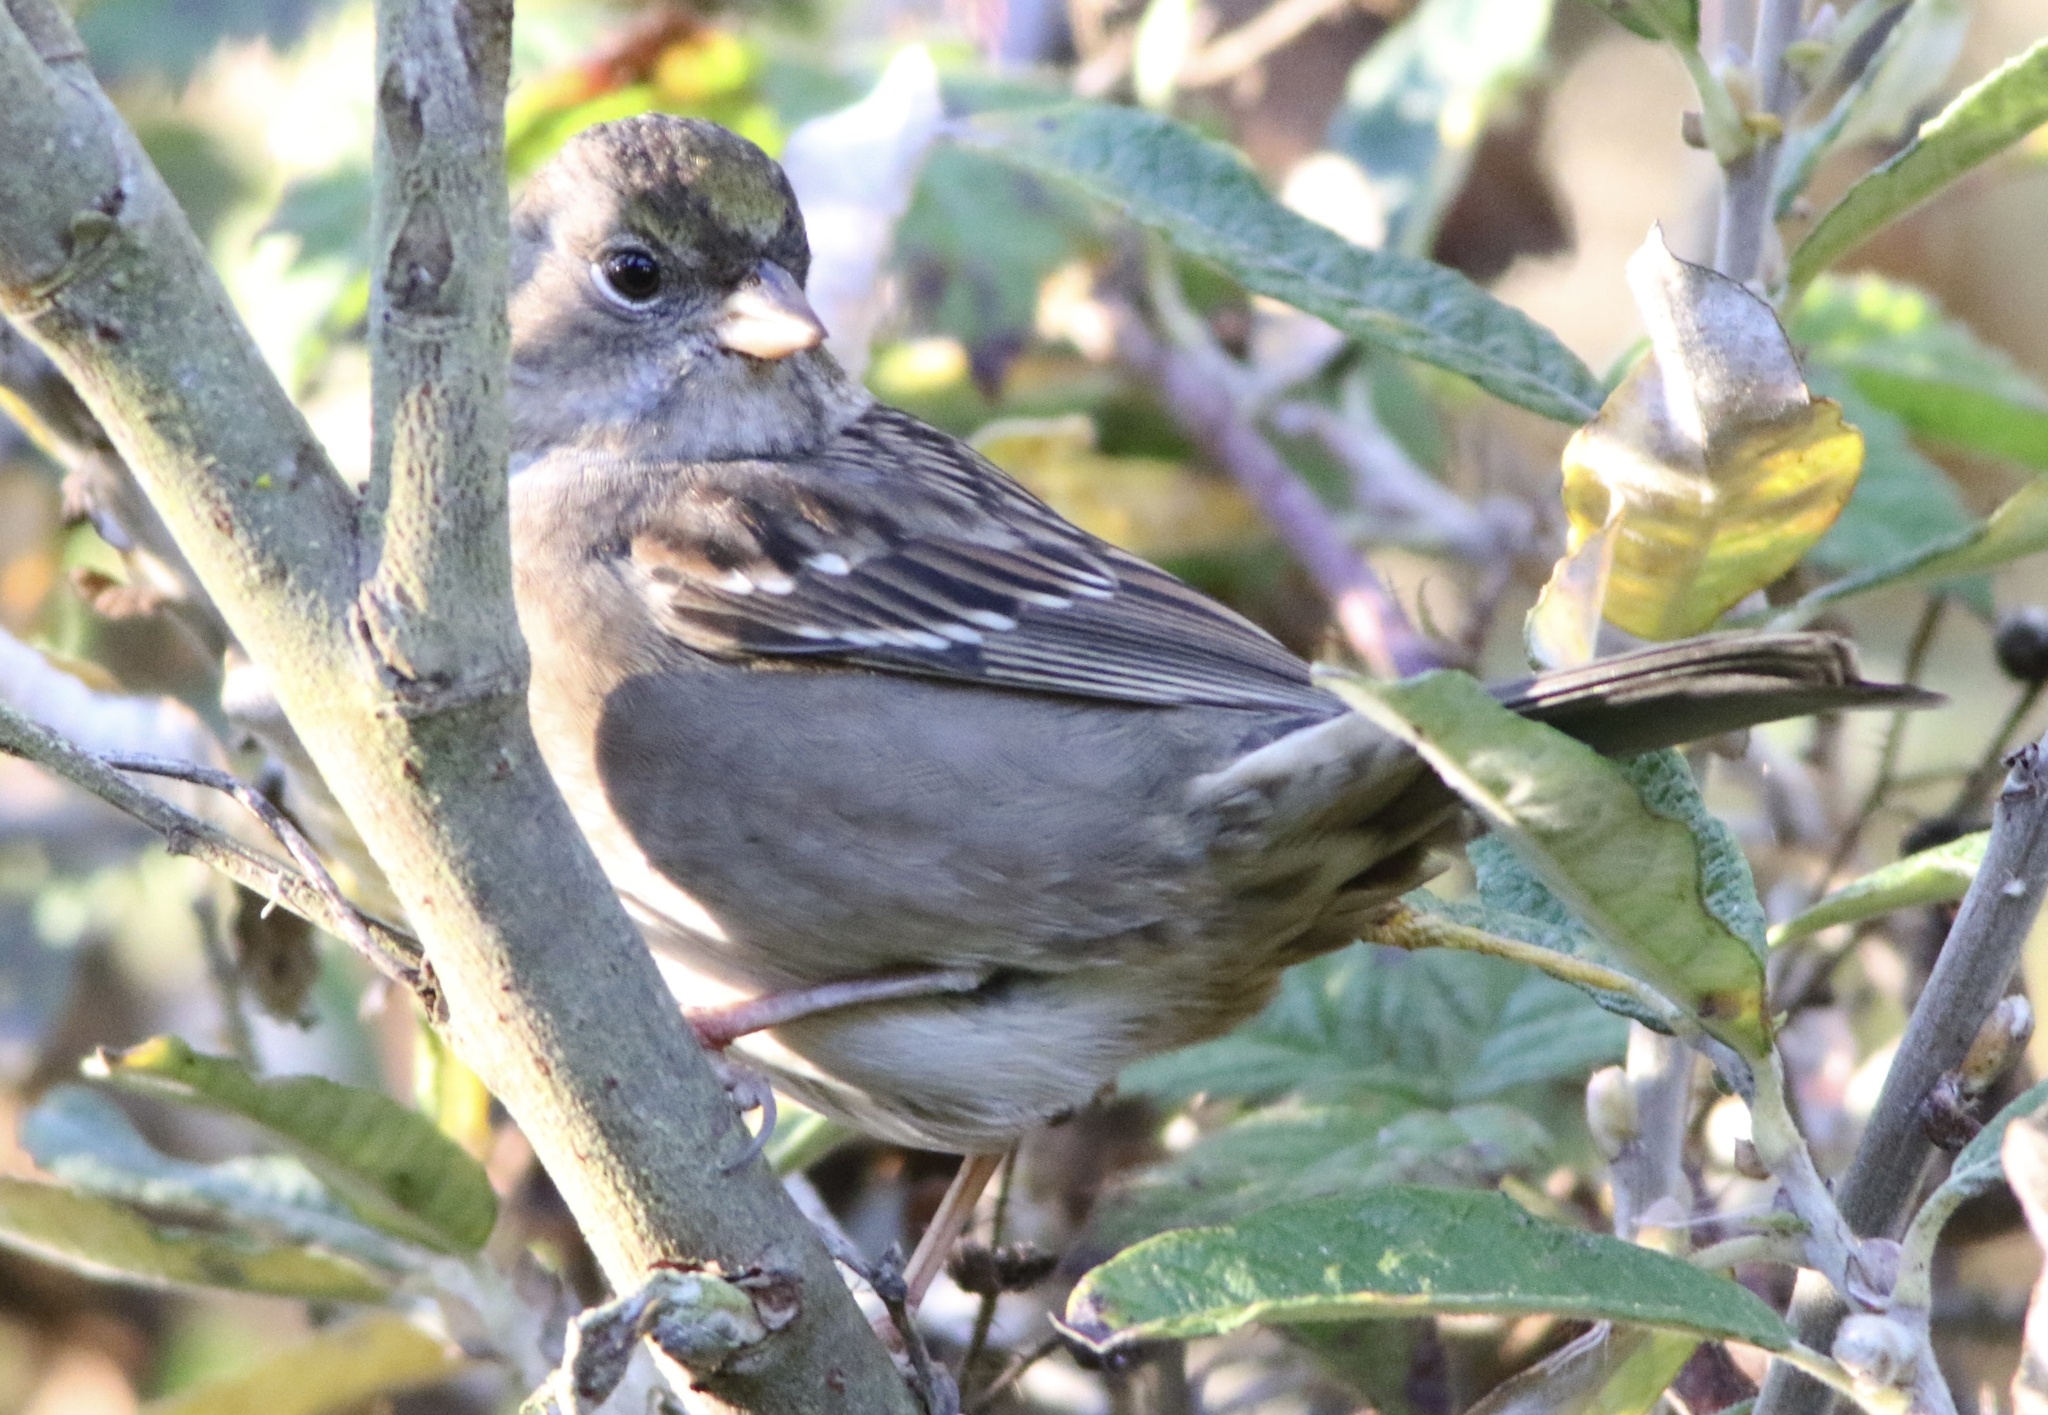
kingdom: Animalia
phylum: Chordata
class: Aves
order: Passeriformes
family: Passerellidae
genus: Zonotrichia
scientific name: Zonotrichia atricapilla
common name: Golden-crowned sparrow
